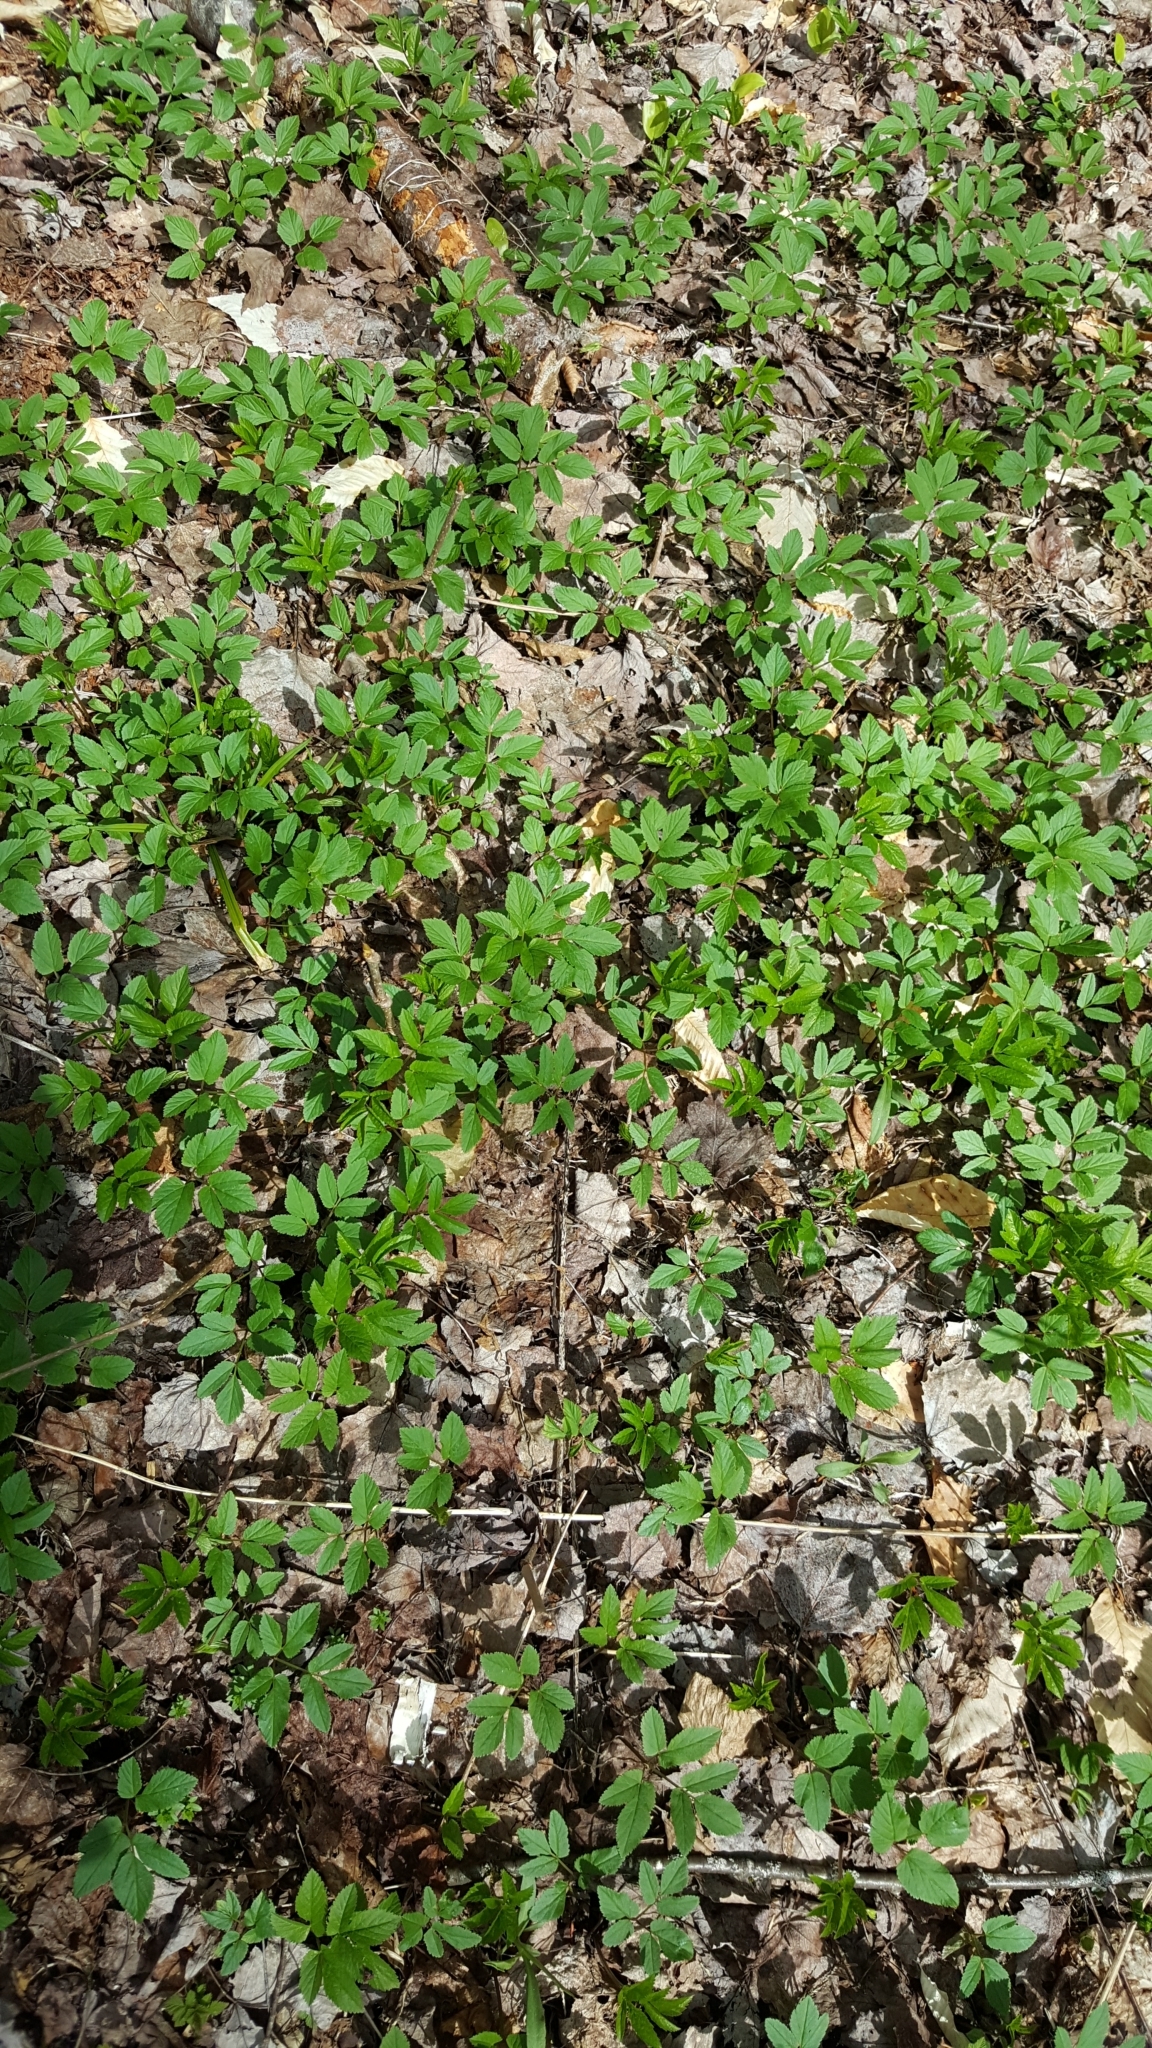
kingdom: Plantae
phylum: Tracheophyta
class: Magnoliopsida
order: Apiales
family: Apiaceae
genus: Aegopodium
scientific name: Aegopodium podagraria
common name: Ground-elder
